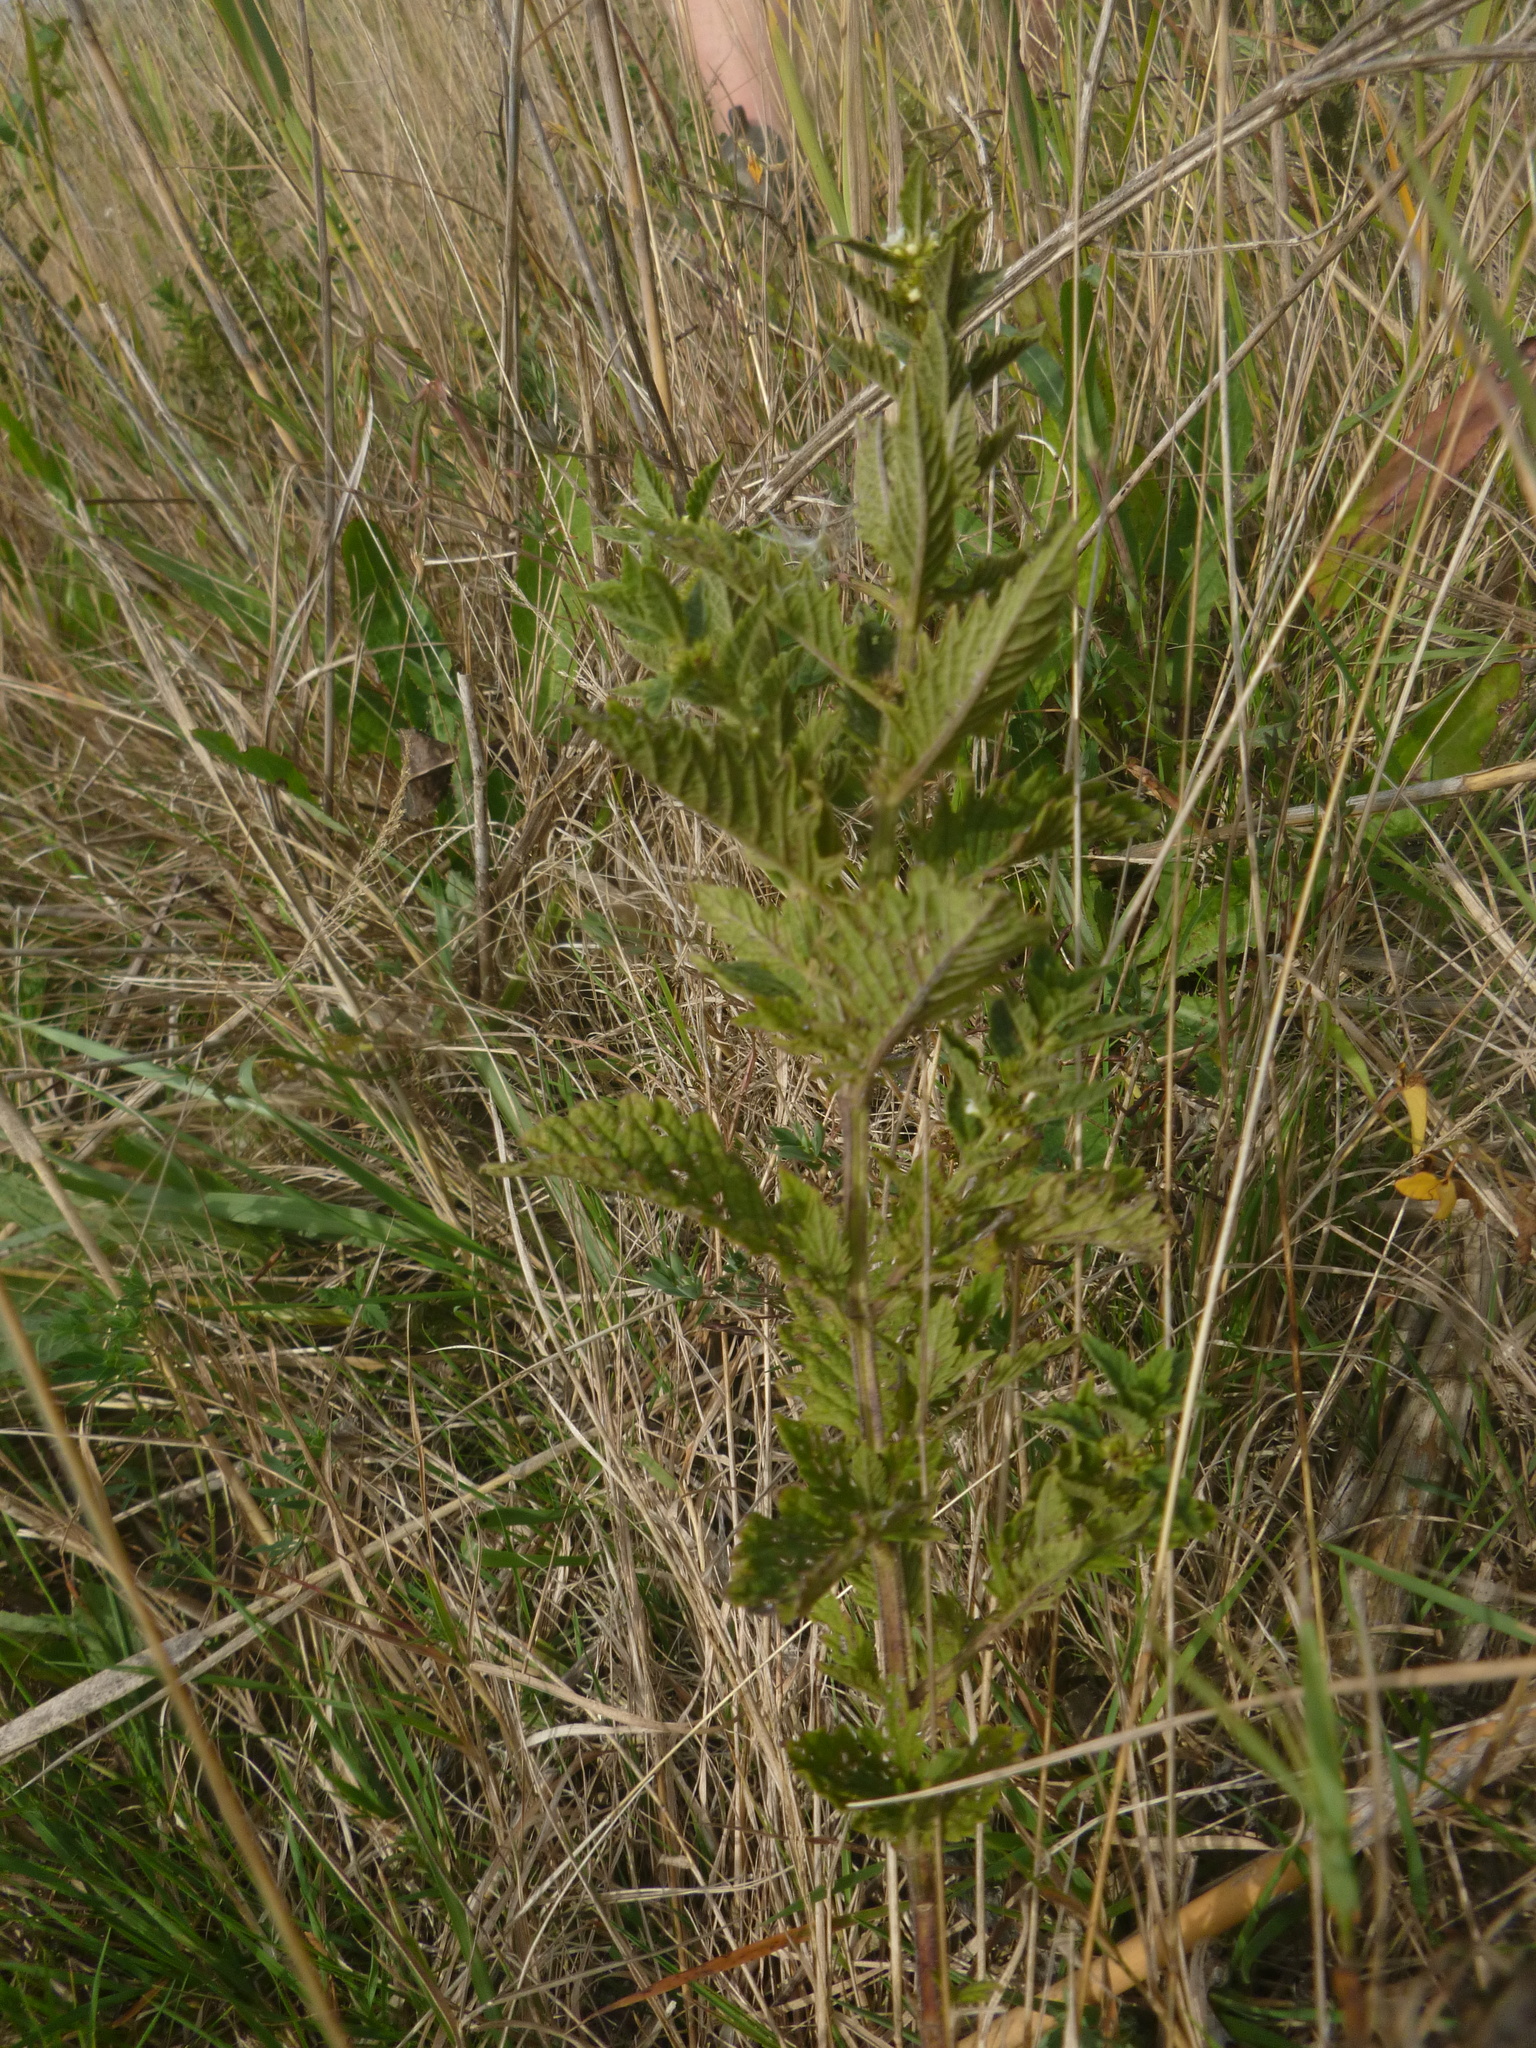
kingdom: Plantae
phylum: Tracheophyta
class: Magnoliopsida
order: Lamiales
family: Lamiaceae
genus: Lycopus
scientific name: Lycopus europaeus
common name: European bugleweed
